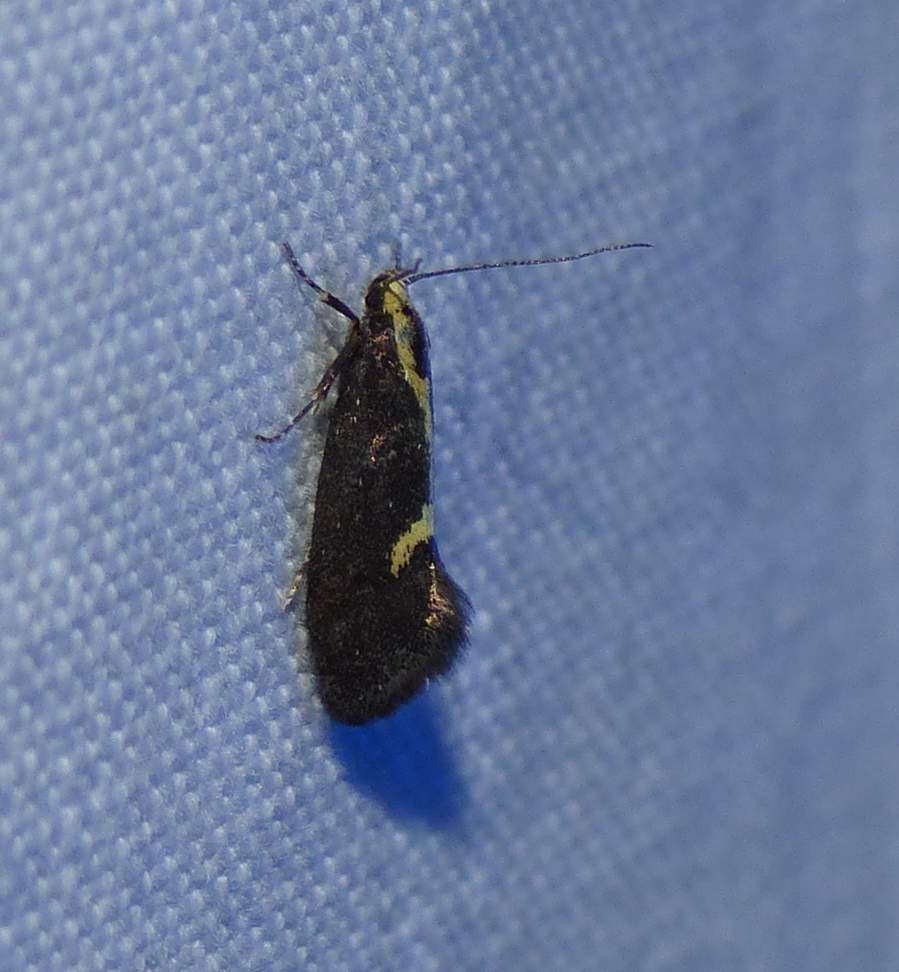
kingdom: Animalia
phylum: Arthropoda
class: Insecta
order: Lepidoptera
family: Oecophoridae
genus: Polix
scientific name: Polix coloradella
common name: Skunk moth
